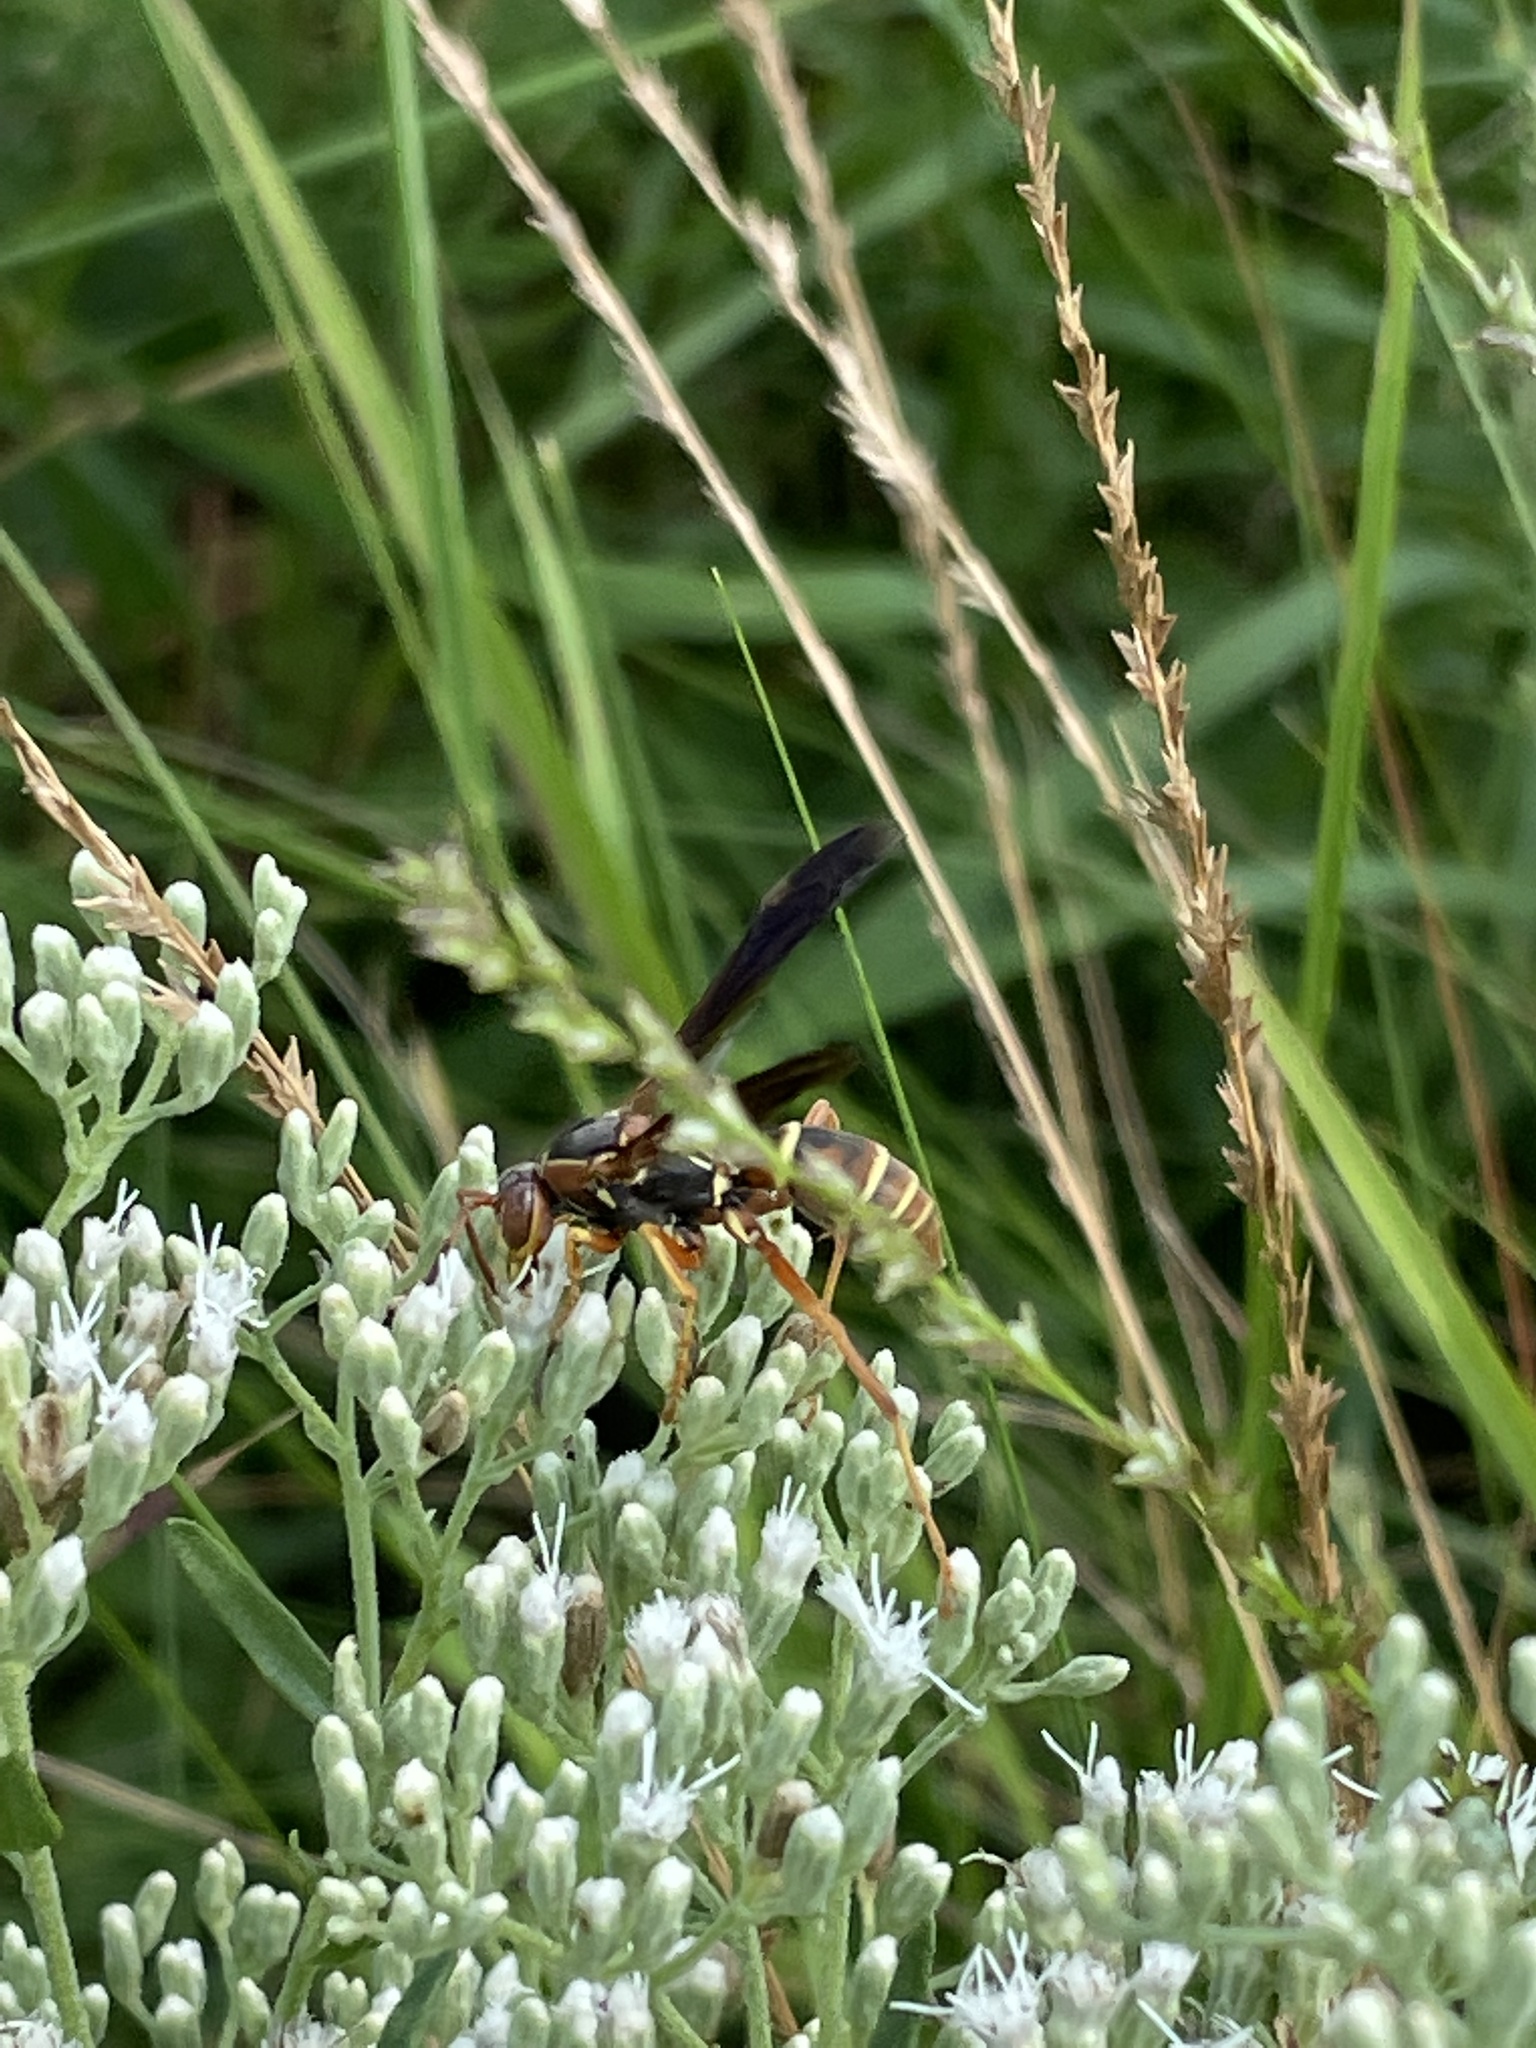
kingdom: Animalia
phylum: Arthropoda
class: Insecta
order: Hymenoptera
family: Vespidae
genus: Fuscopolistes
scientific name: Fuscopolistes
